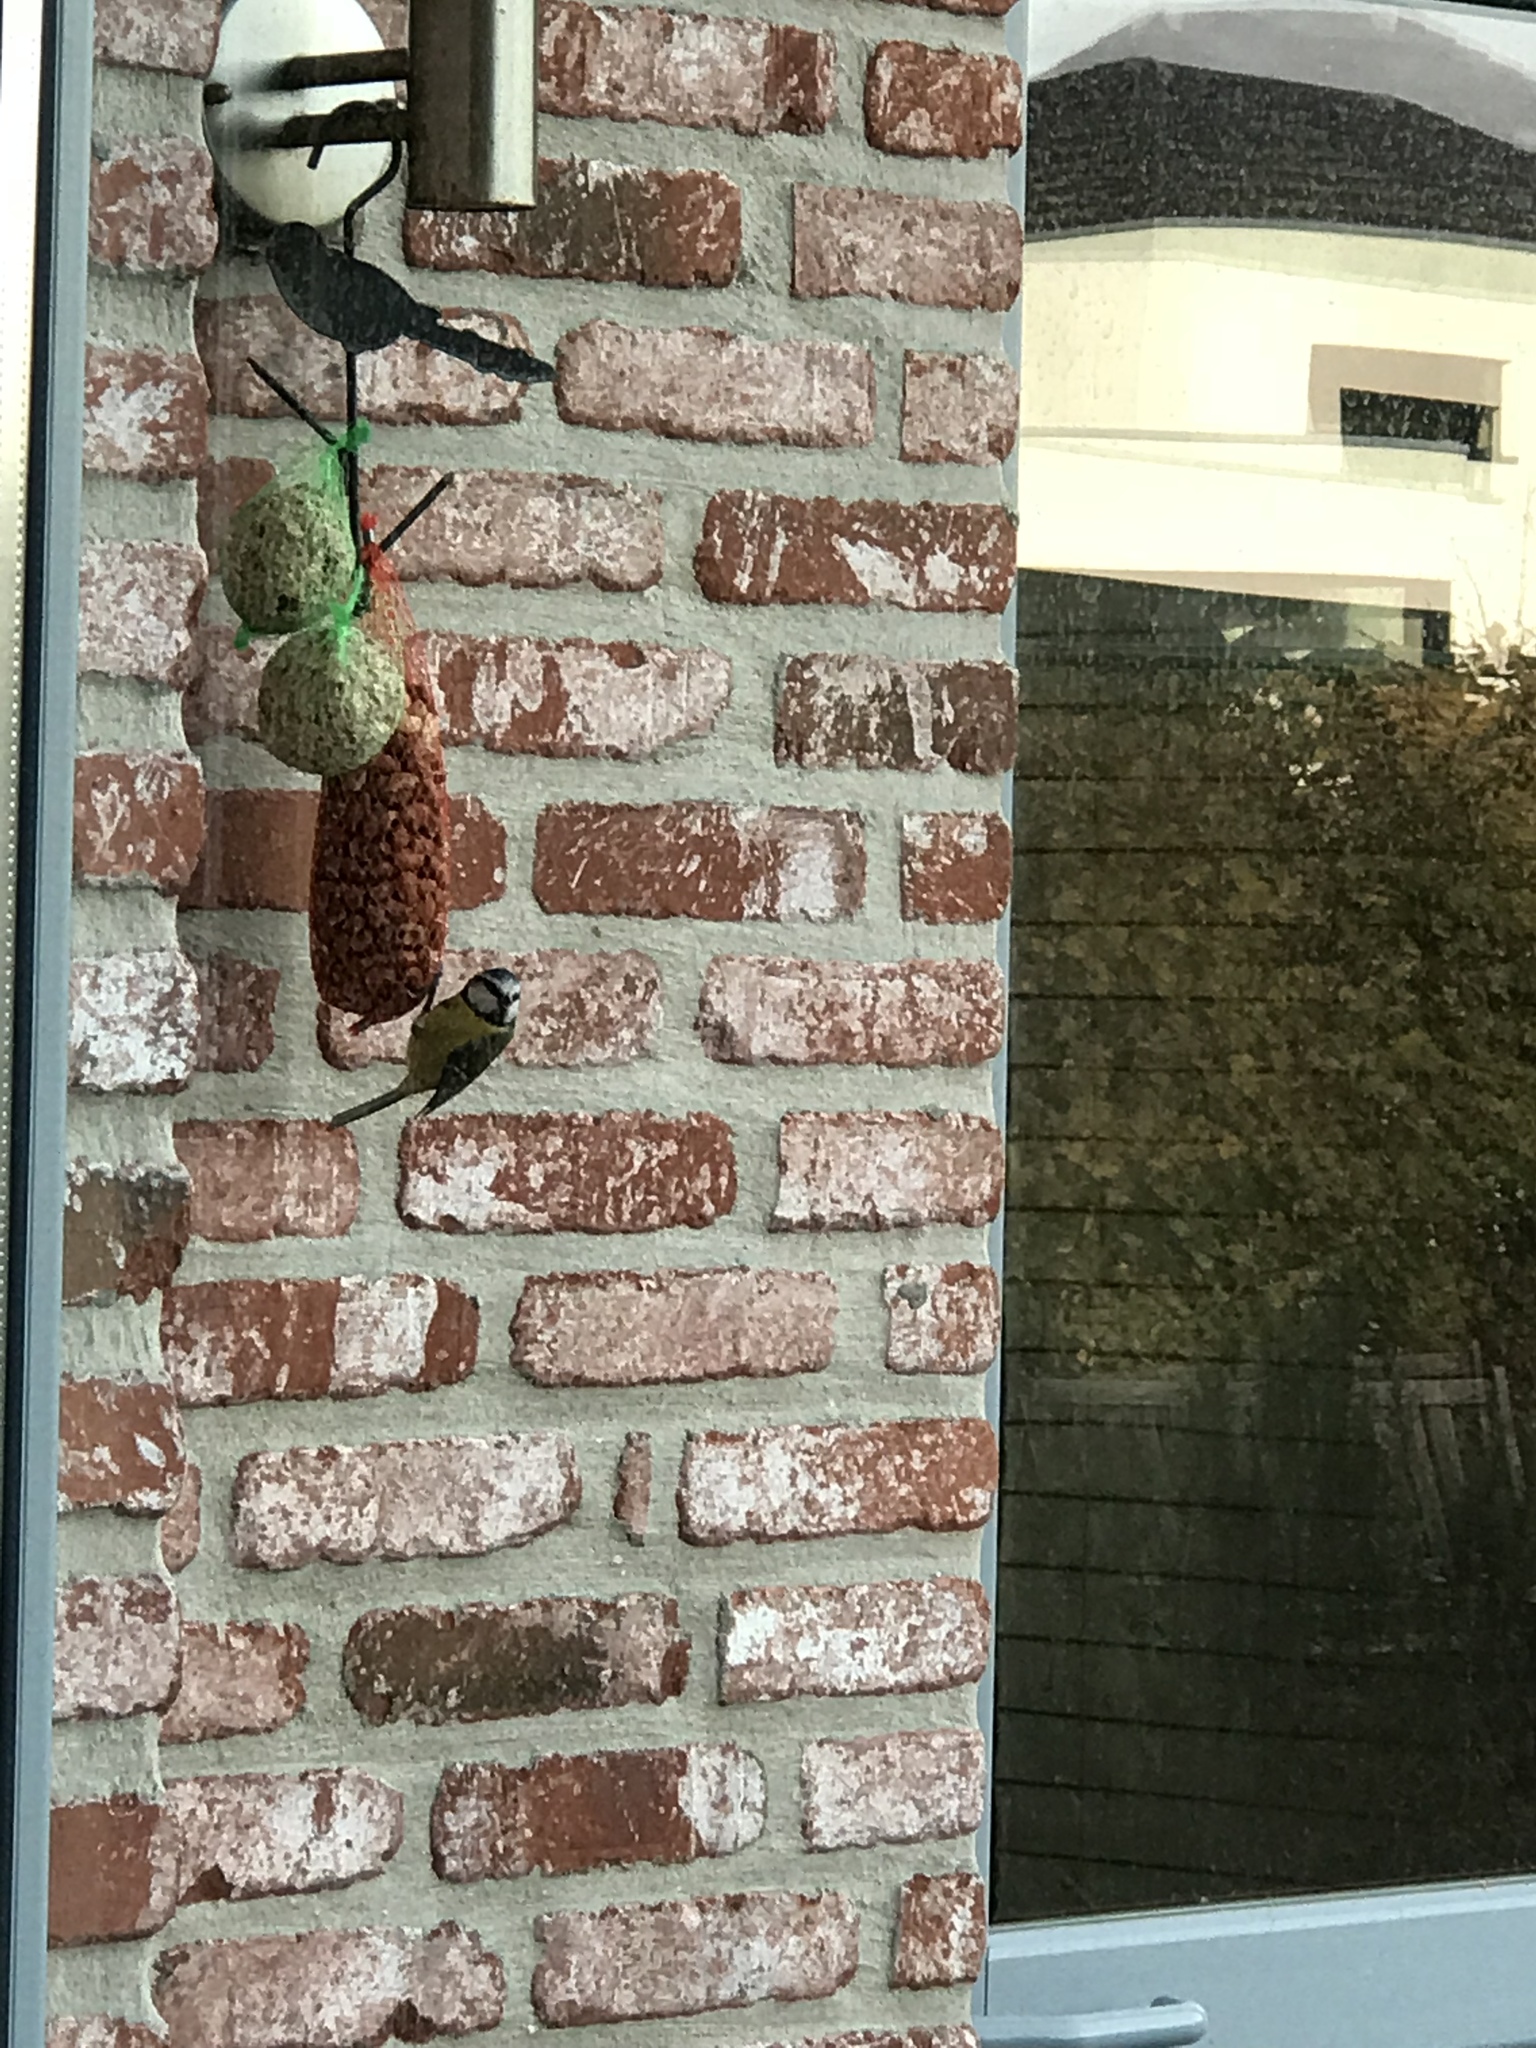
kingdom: Animalia
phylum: Chordata
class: Aves
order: Passeriformes
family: Paridae
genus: Cyanistes
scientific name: Cyanistes caeruleus
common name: Eurasian blue tit
